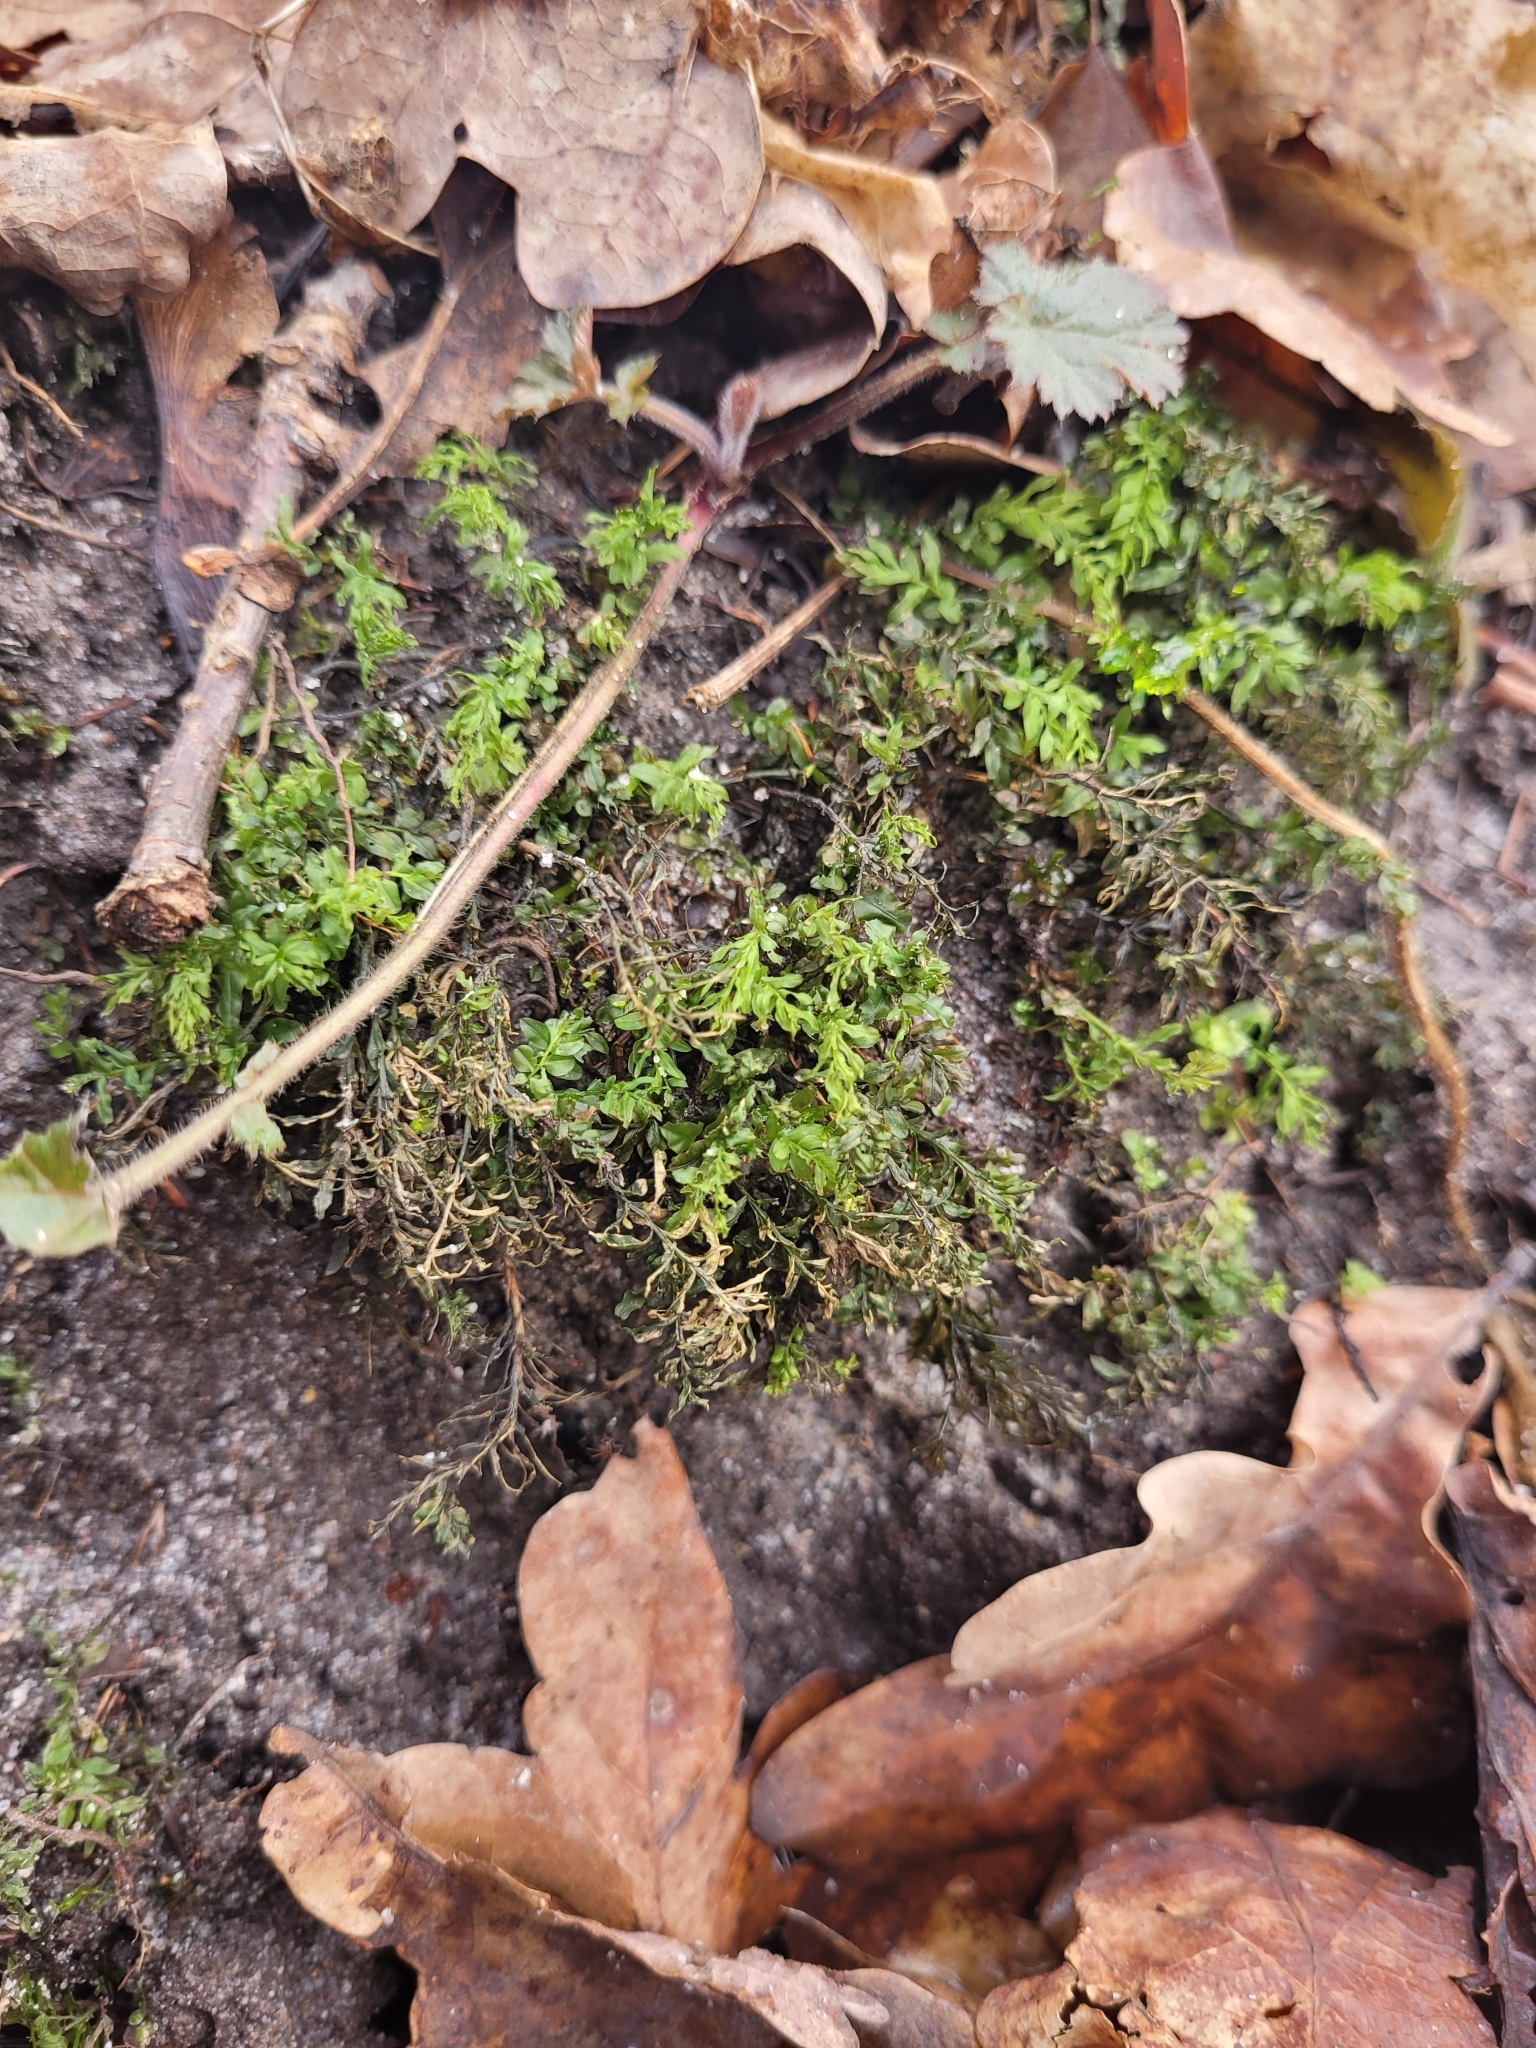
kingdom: Plantae
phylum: Bryophyta
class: Bryopsida
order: Bryales
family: Mniaceae
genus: Plagiomnium
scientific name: Plagiomnium undulatum
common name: Hart's-tongue thyme-moss
